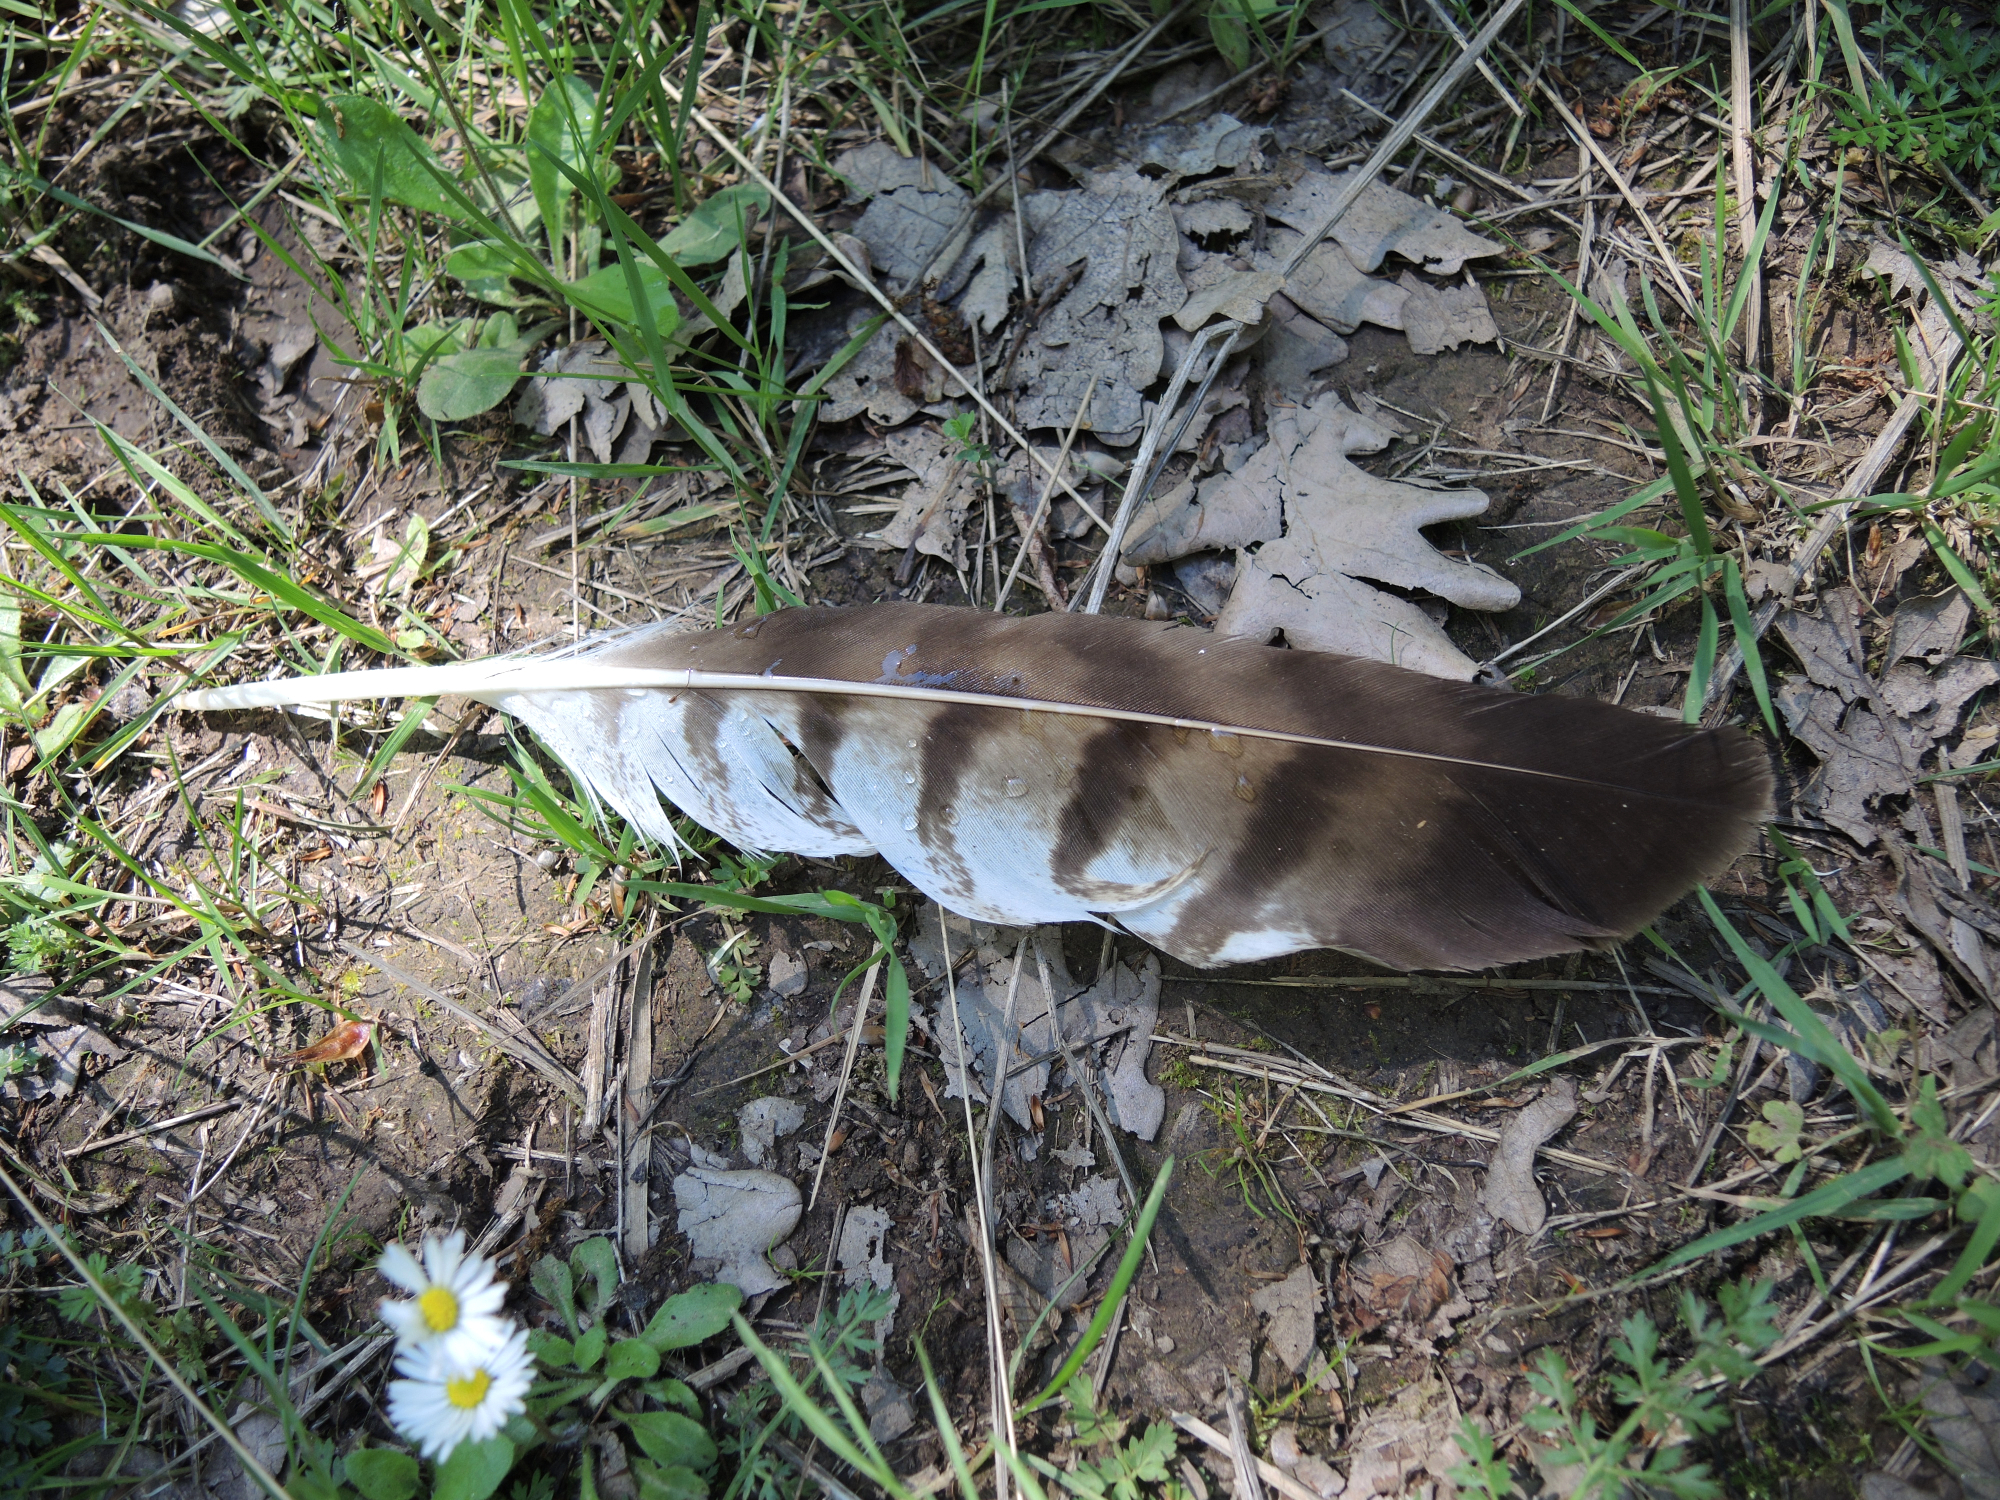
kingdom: Animalia
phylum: Chordata
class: Aves
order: Accipitriformes
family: Accipitridae
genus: Buteo
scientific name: Buteo buteo
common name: Common buzzard
